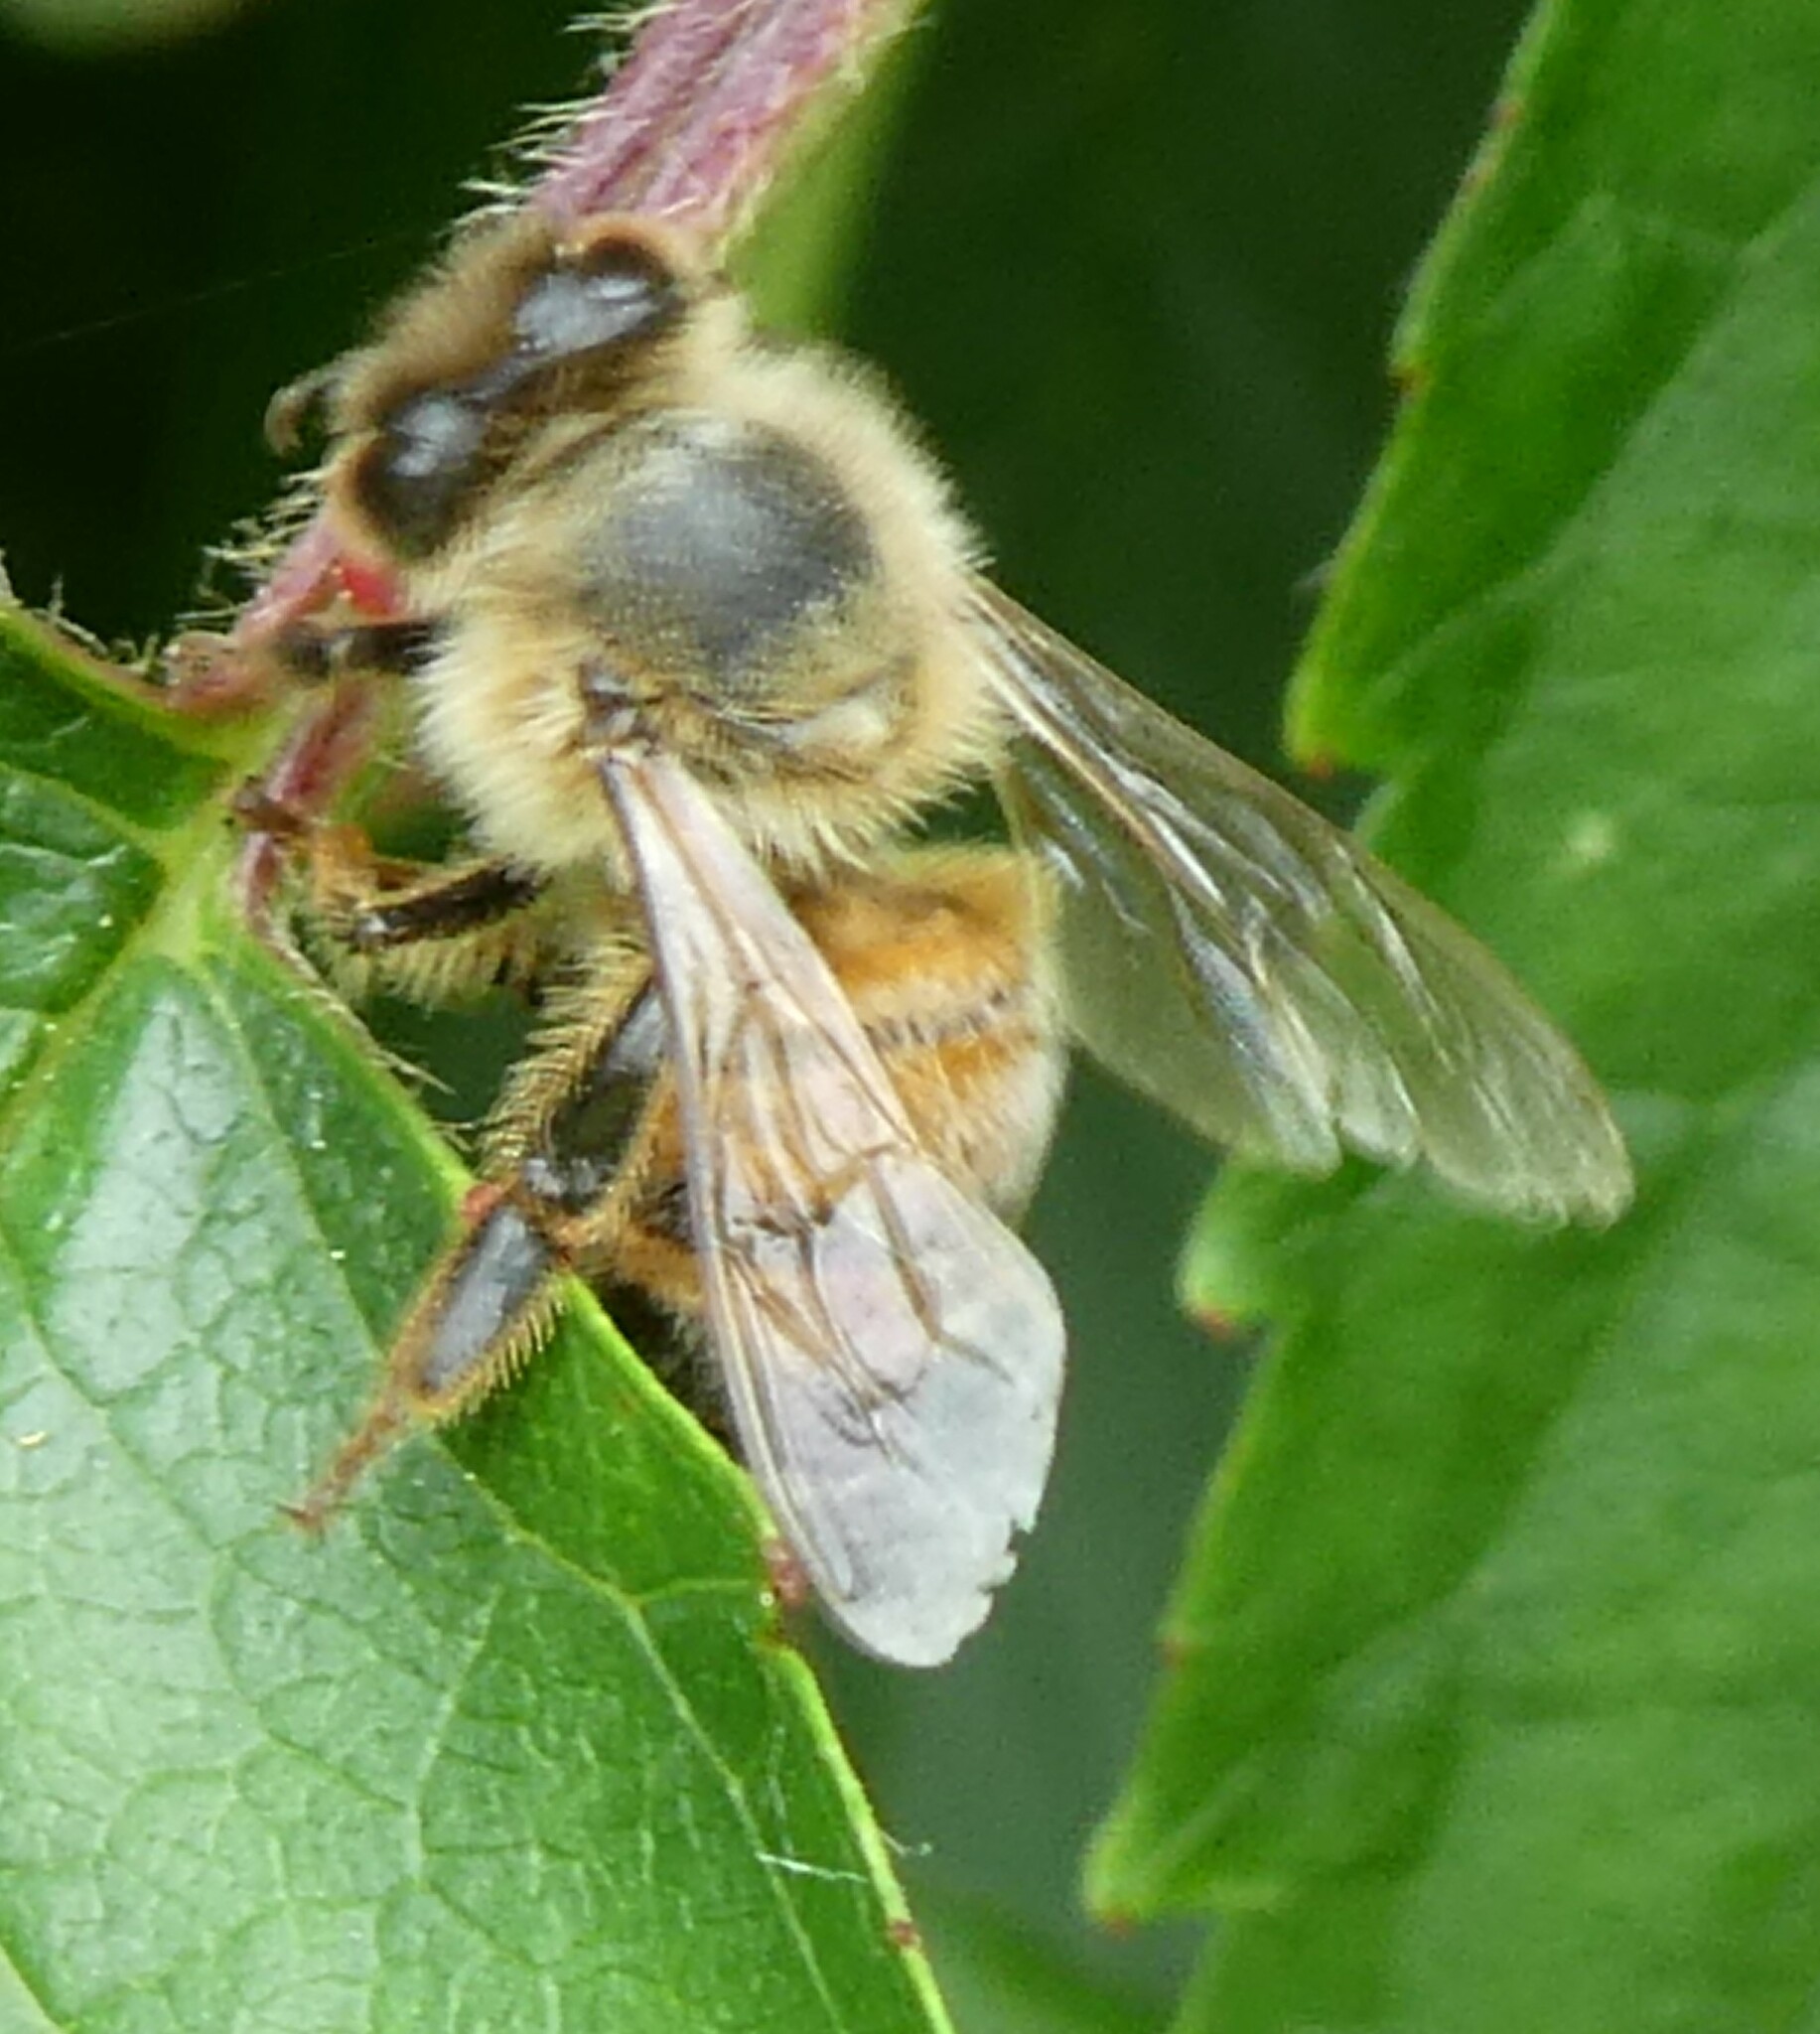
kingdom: Animalia
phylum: Arthropoda
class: Insecta
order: Hymenoptera
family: Apidae
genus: Apis
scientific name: Apis mellifera
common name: Honey bee
